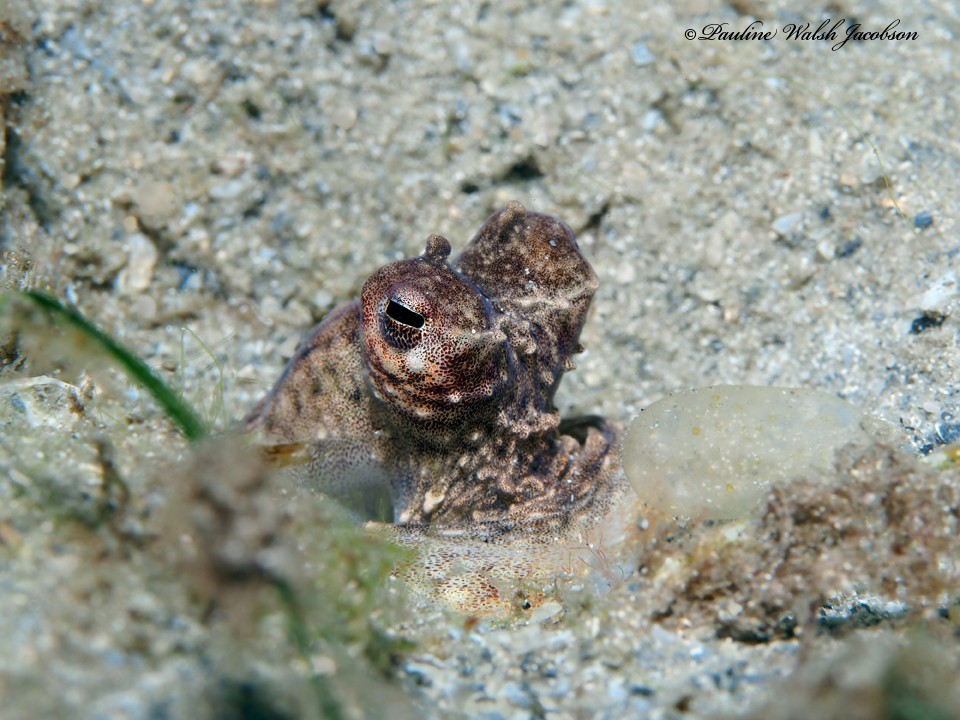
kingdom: Animalia
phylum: Mollusca
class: Cephalopoda
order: Octopoda
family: Octopodidae
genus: Macrotritopus
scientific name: Macrotritopus defilippi
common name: Lilliput longarm octopus
